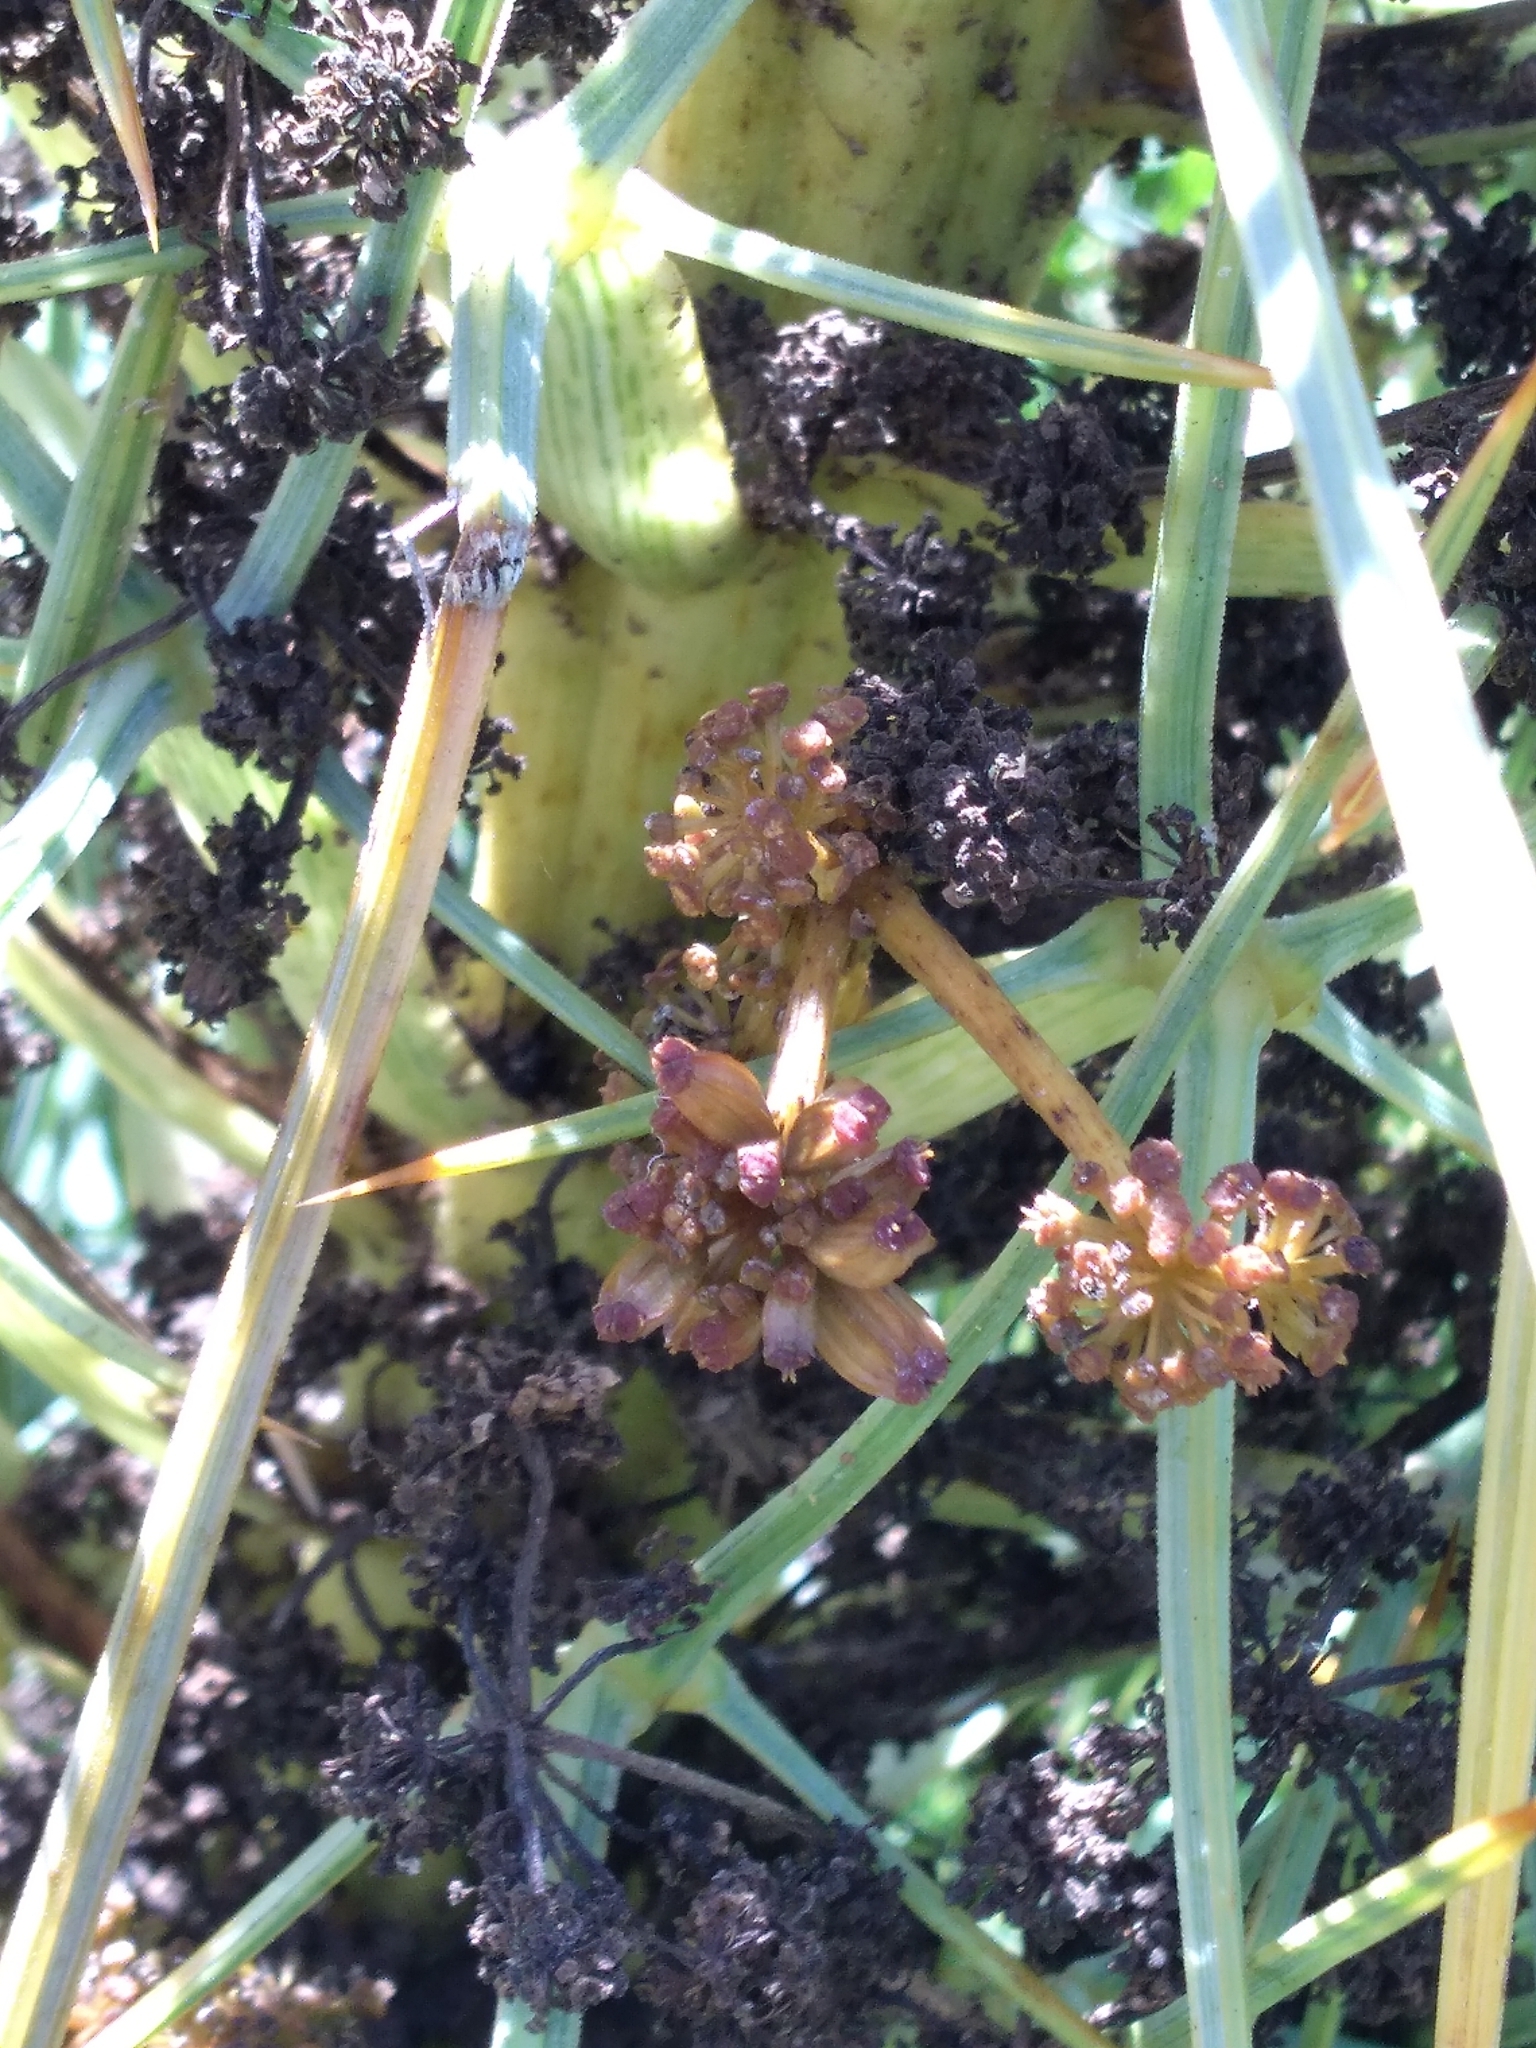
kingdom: Plantae
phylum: Tracheophyta
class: Magnoliopsida
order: Apiales
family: Apiaceae
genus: Aciphylla
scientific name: Aciphylla squarrosa
